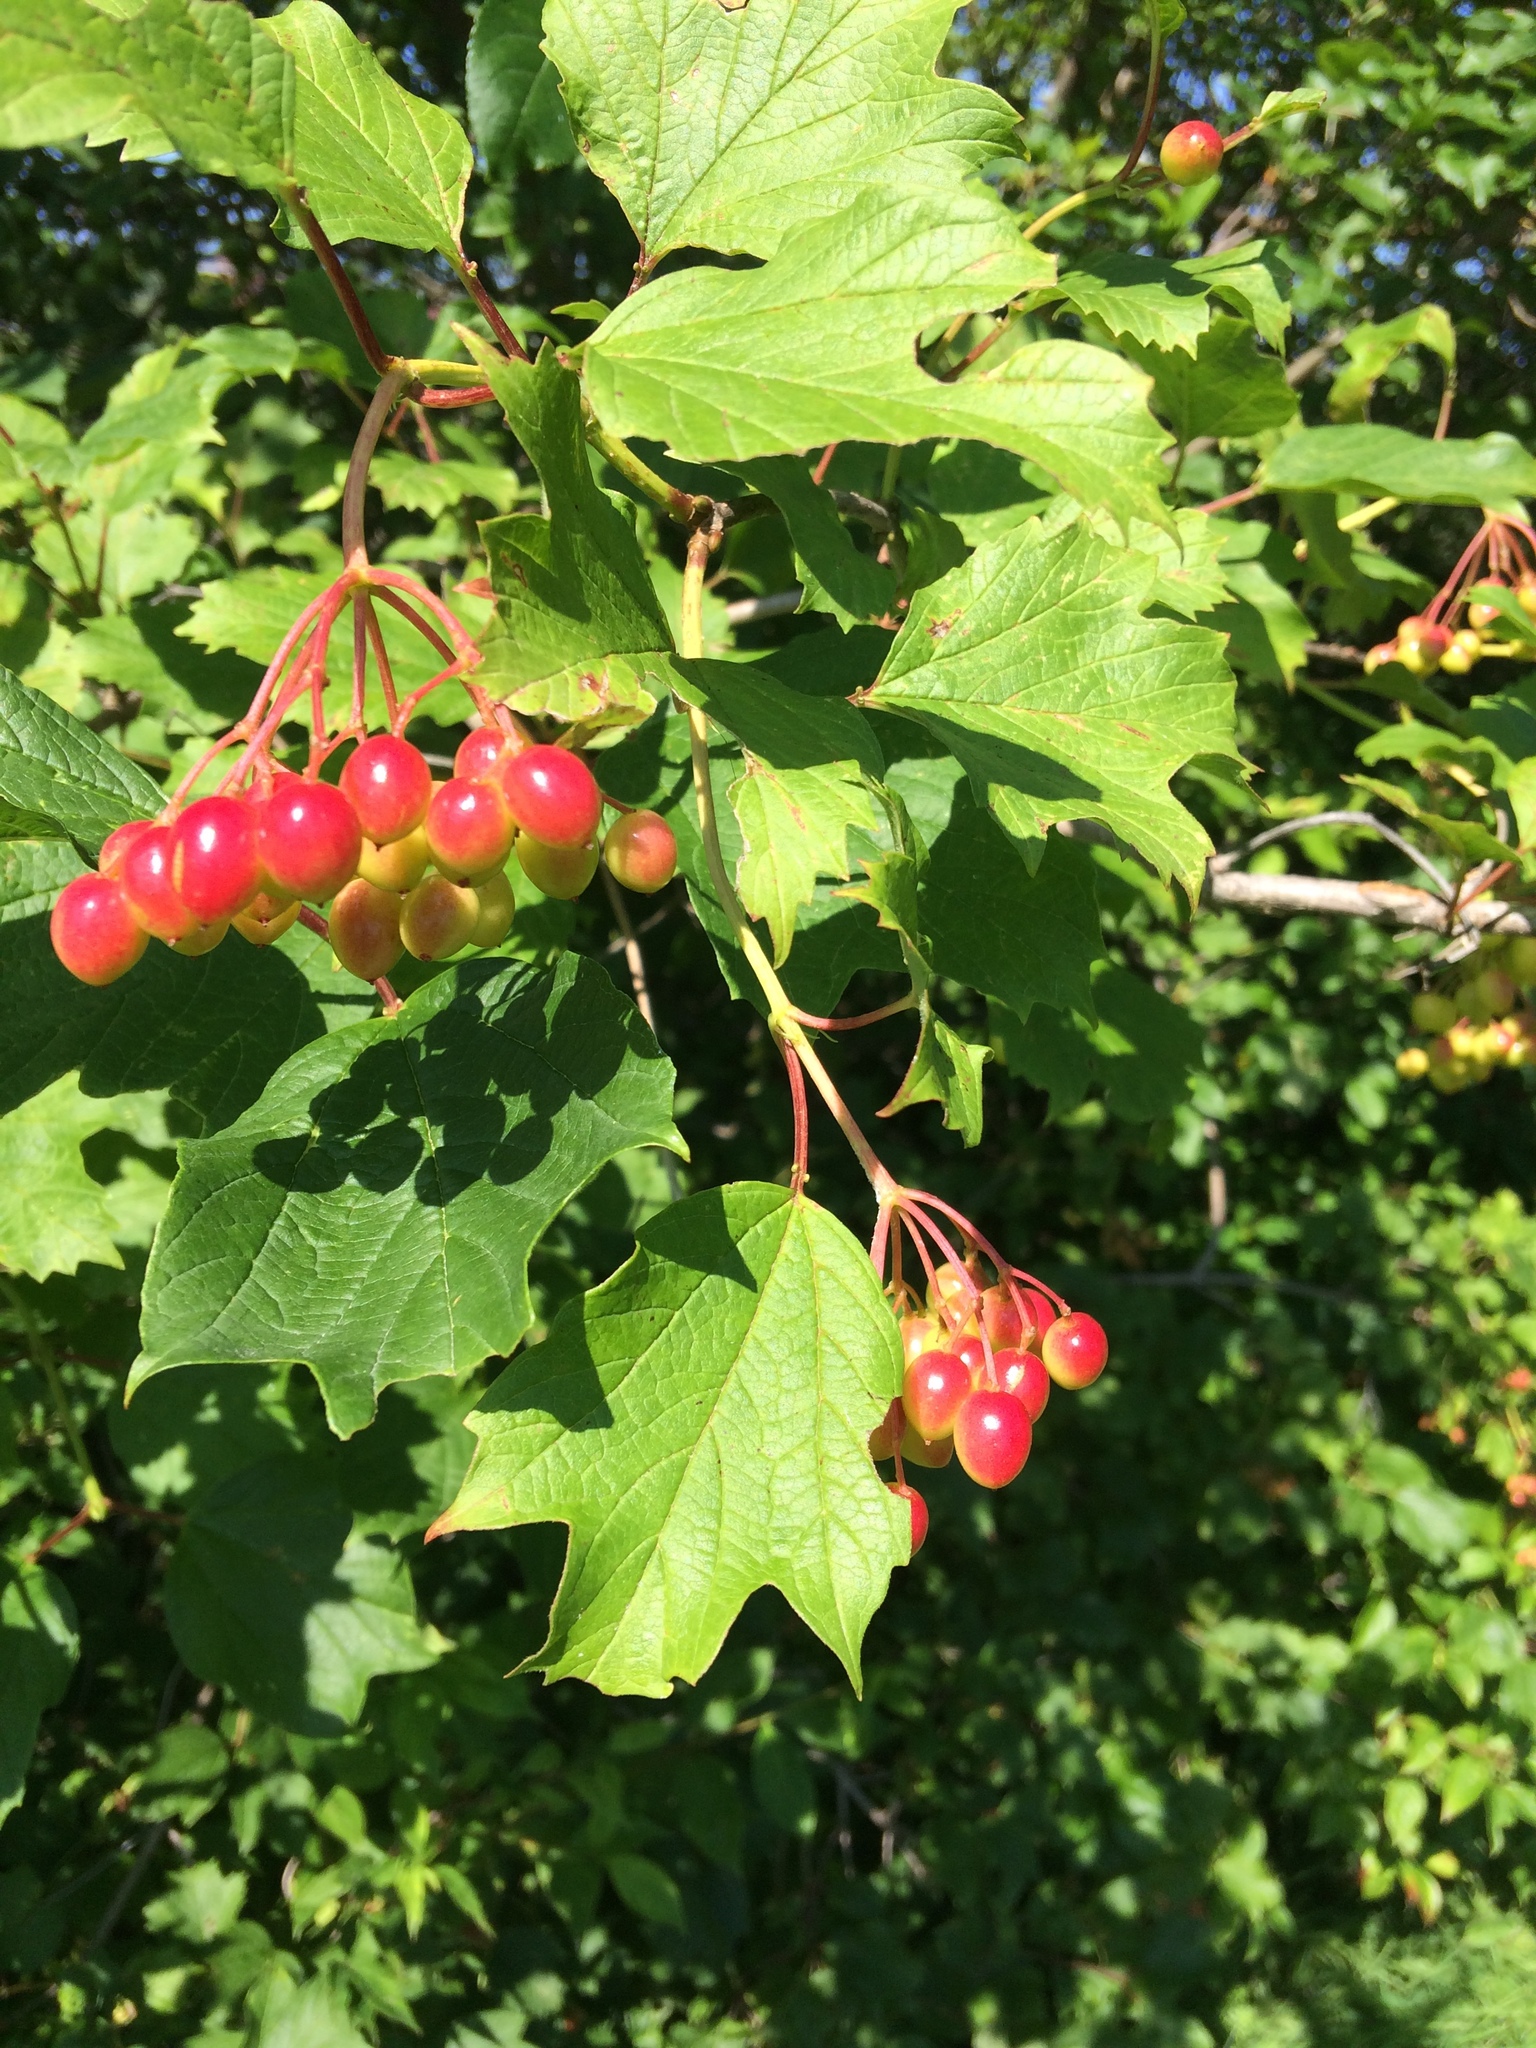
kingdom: Plantae
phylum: Tracheophyta
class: Magnoliopsida
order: Dipsacales
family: Viburnaceae
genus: Viburnum
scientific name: Viburnum opulus
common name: Guelder-rose
